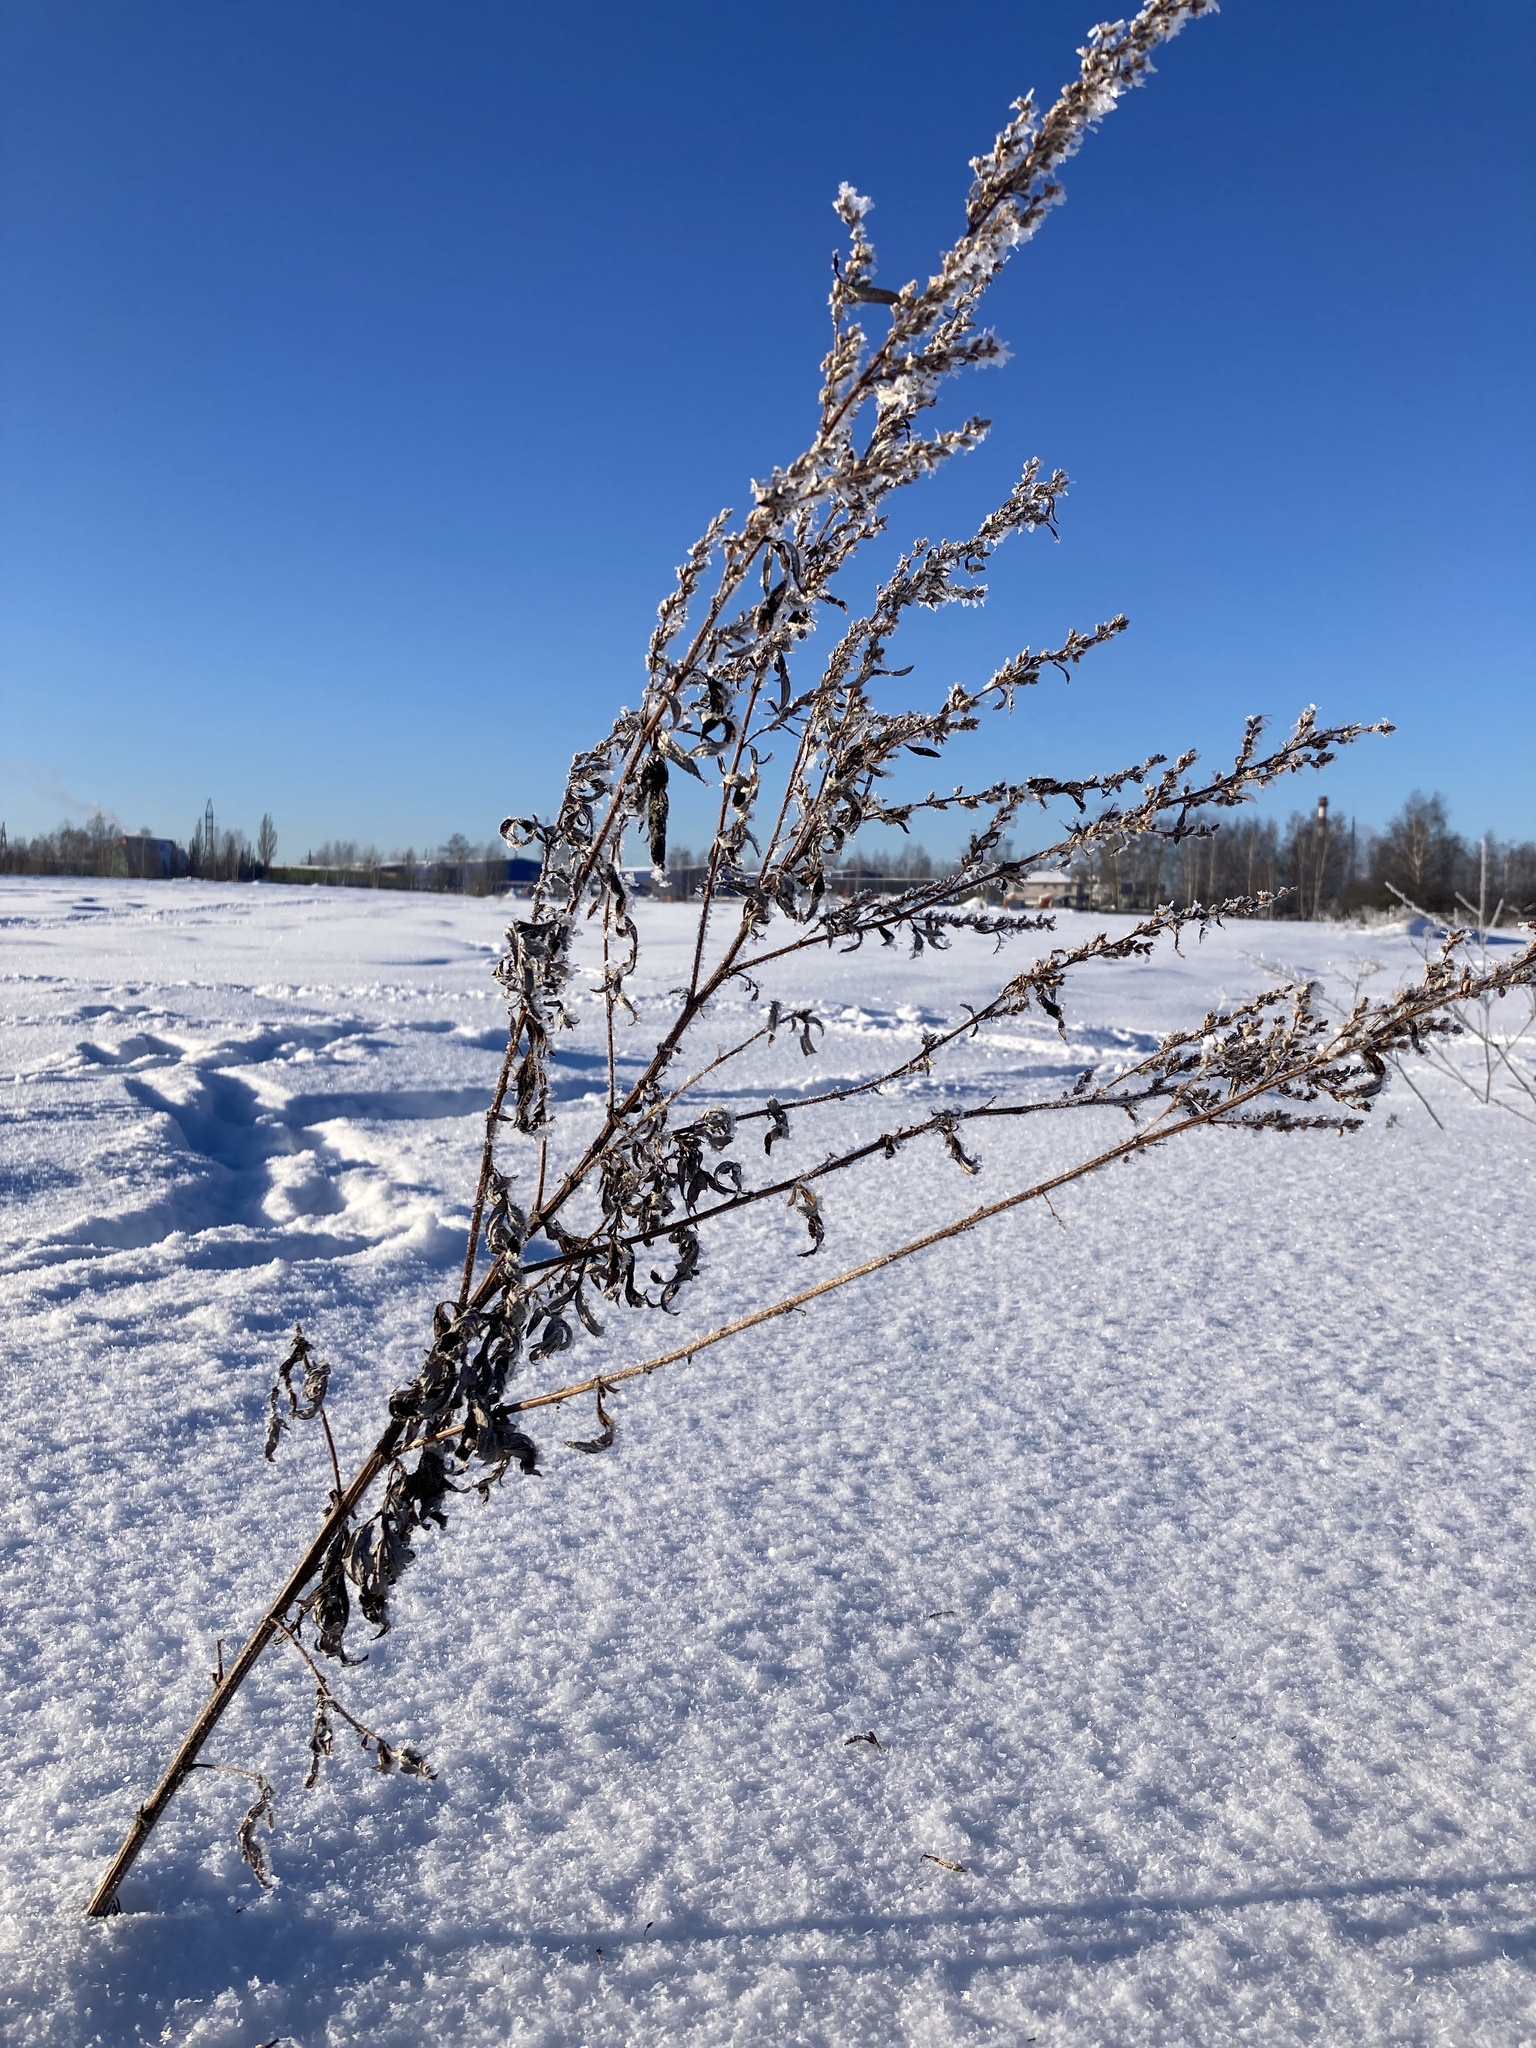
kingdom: Plantae
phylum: Tracheophyta
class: Magnoliopsida
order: Asterales
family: Asteraceae
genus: Artemisia
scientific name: Artemisia vulgaris
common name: Mugwort
